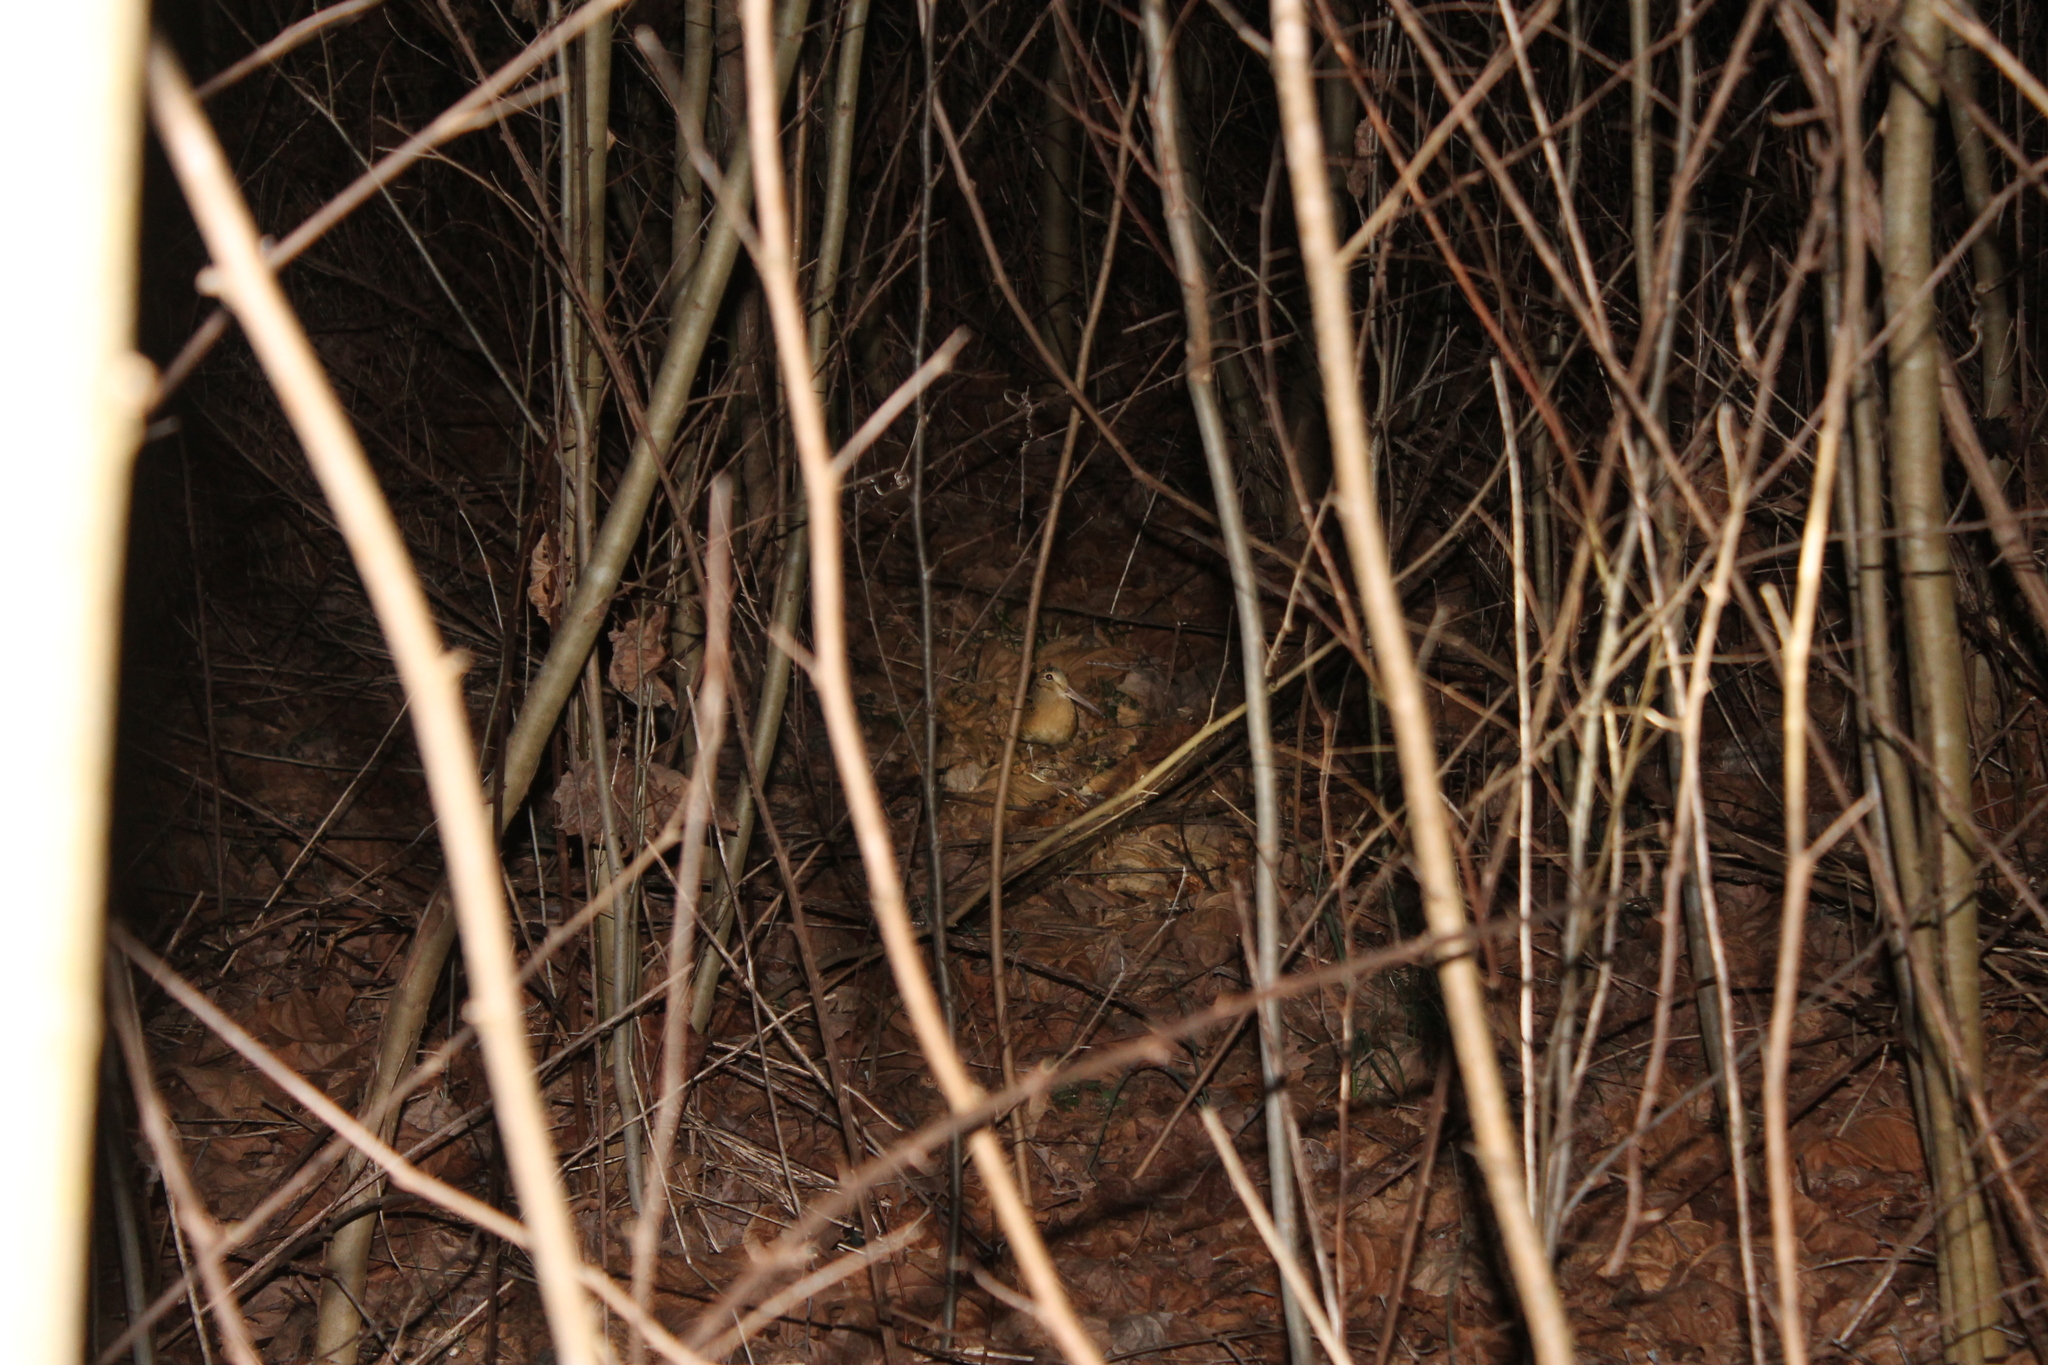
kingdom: Animalia
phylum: Chordata
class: Aves
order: Charadriiformes
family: Scolopacidae
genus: Scolopax
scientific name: Scolopax minor
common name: American woodcock
